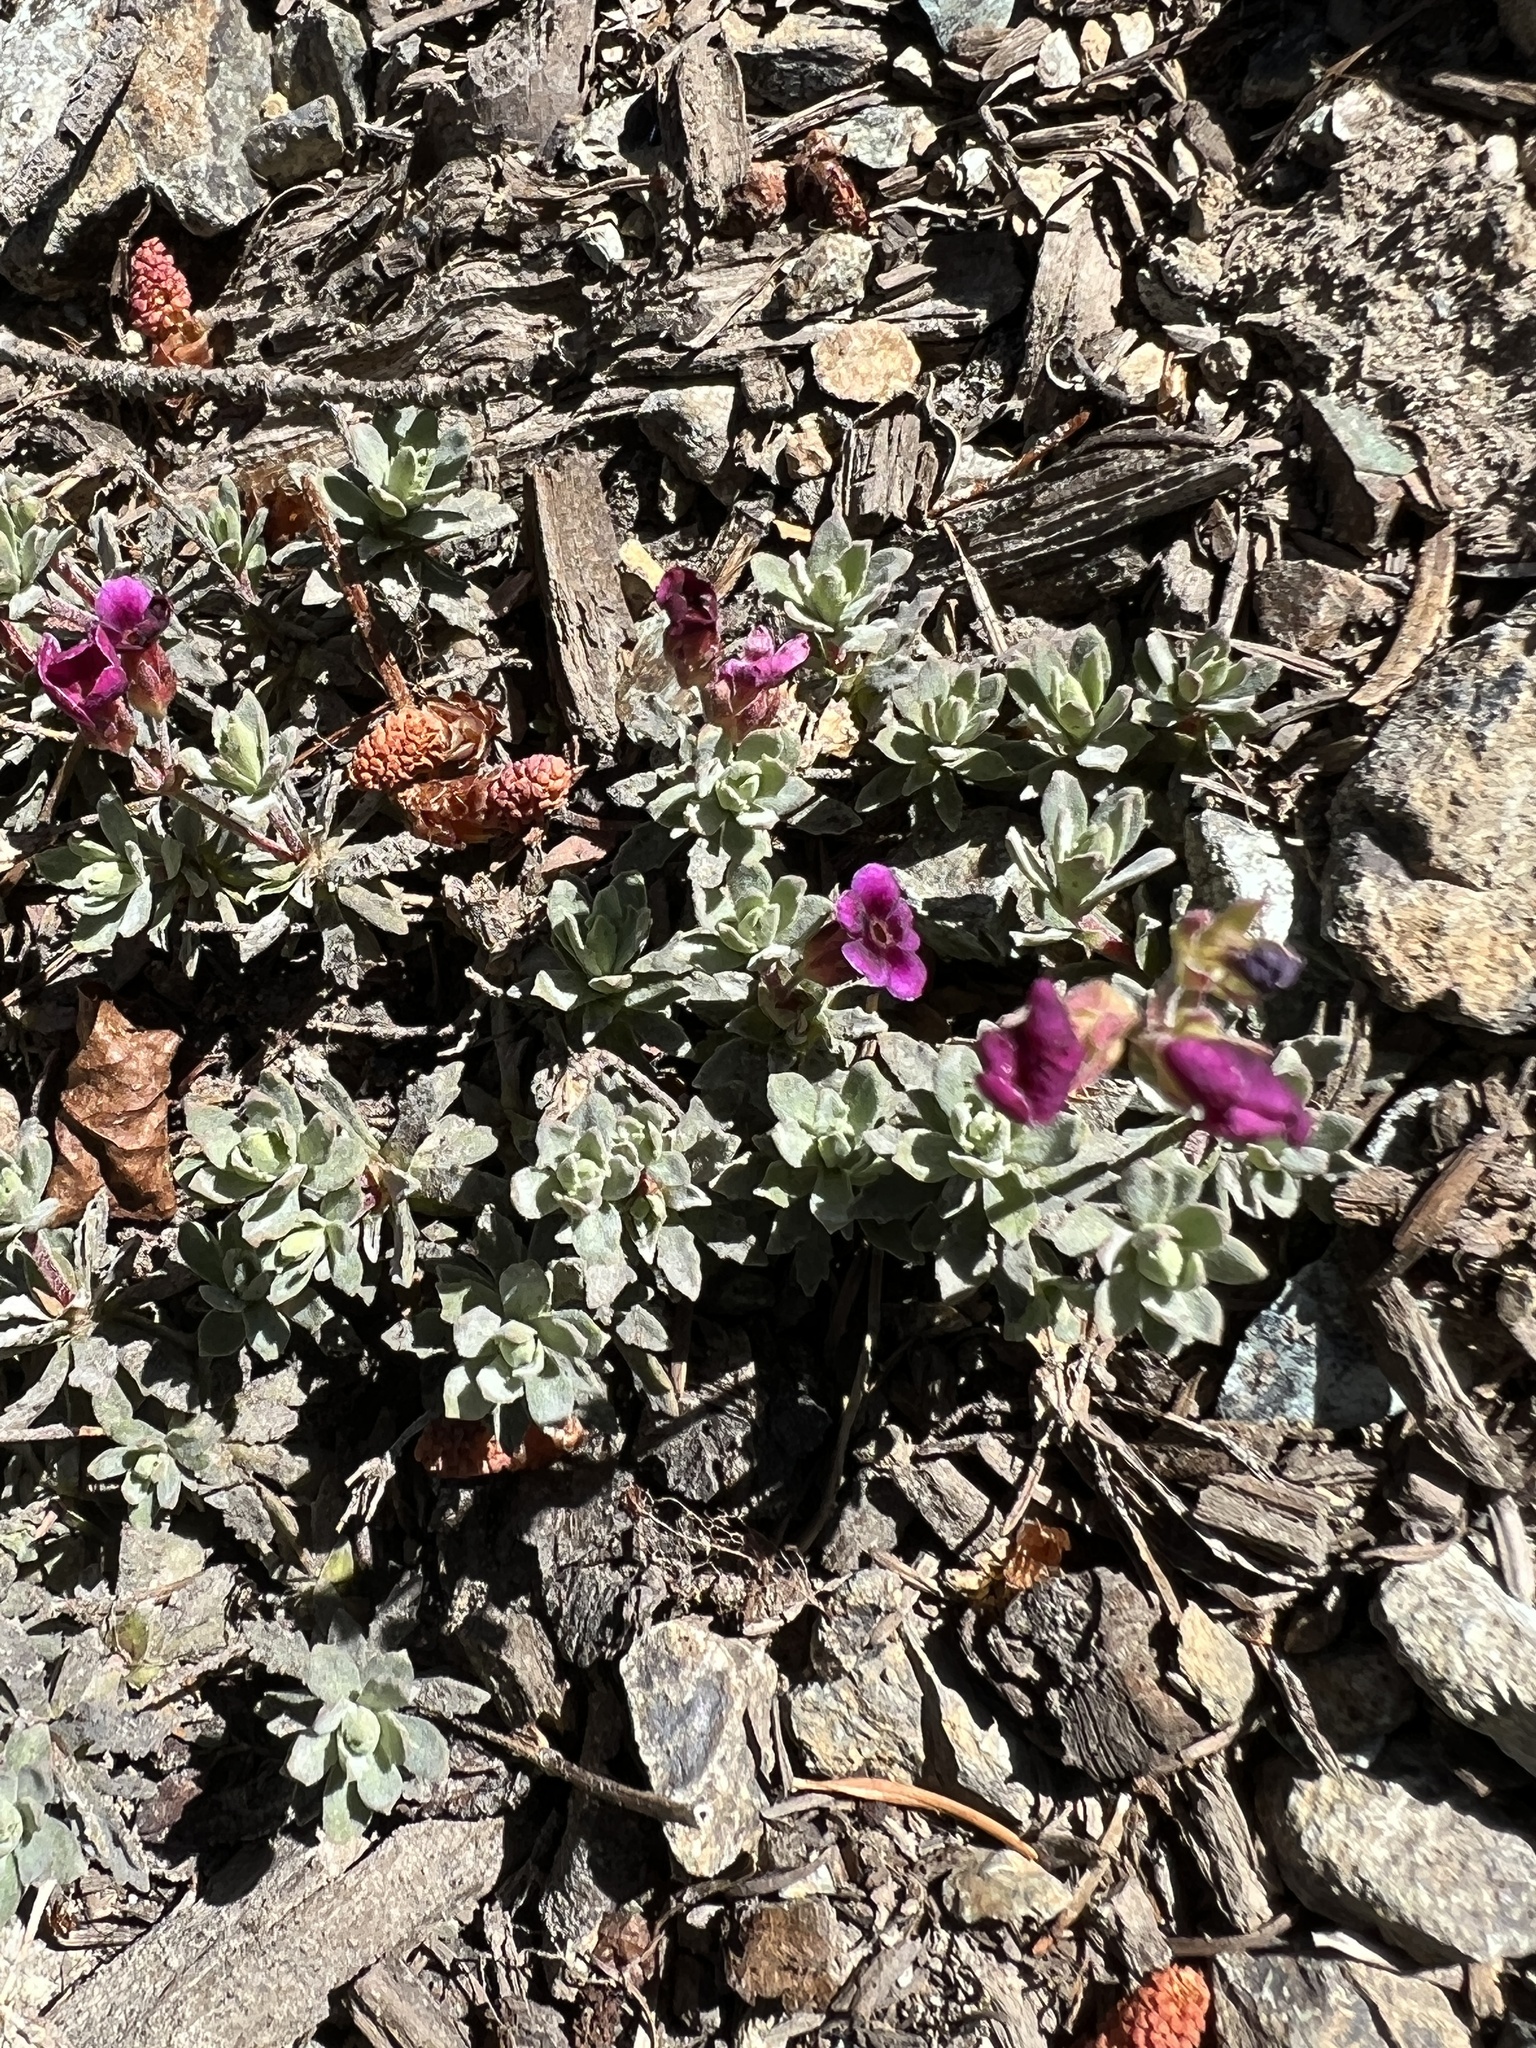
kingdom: Plantae
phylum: Tracheophyta
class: Magnoliopsida
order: Ericales
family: Primulaceae
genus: Androsace
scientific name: Androsace nivalis
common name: Snow dwarf-primrose
